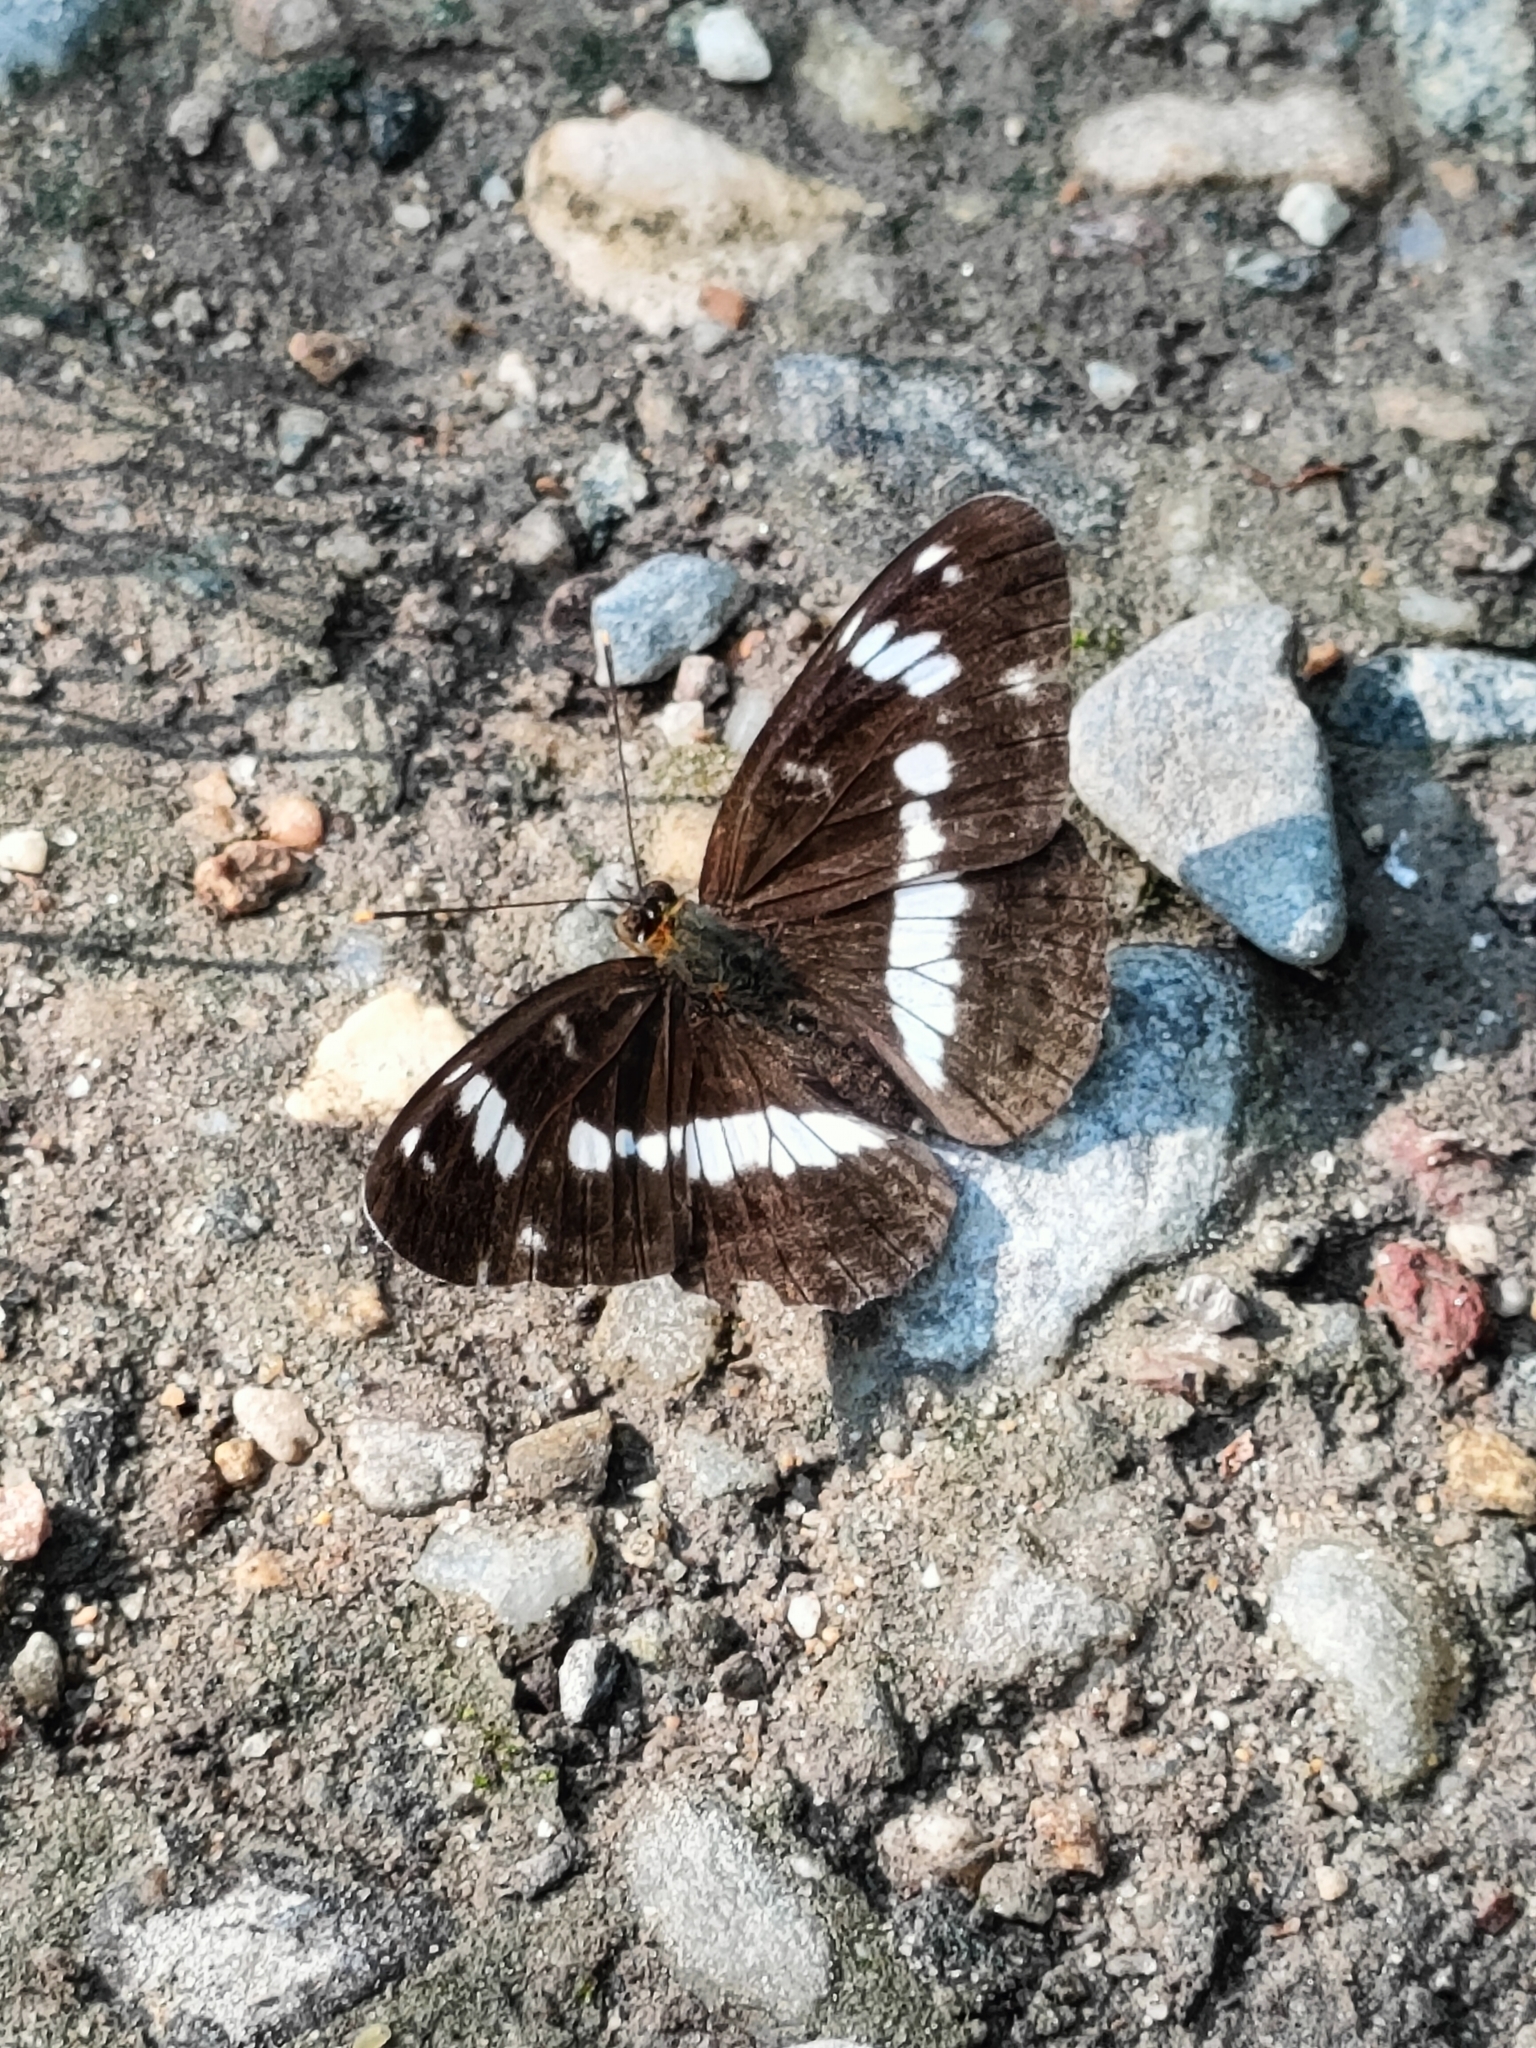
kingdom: Animalia
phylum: Arthropoda
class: Insecta
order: Lepidoptera
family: Nymphalidae
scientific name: Nymphalidae
